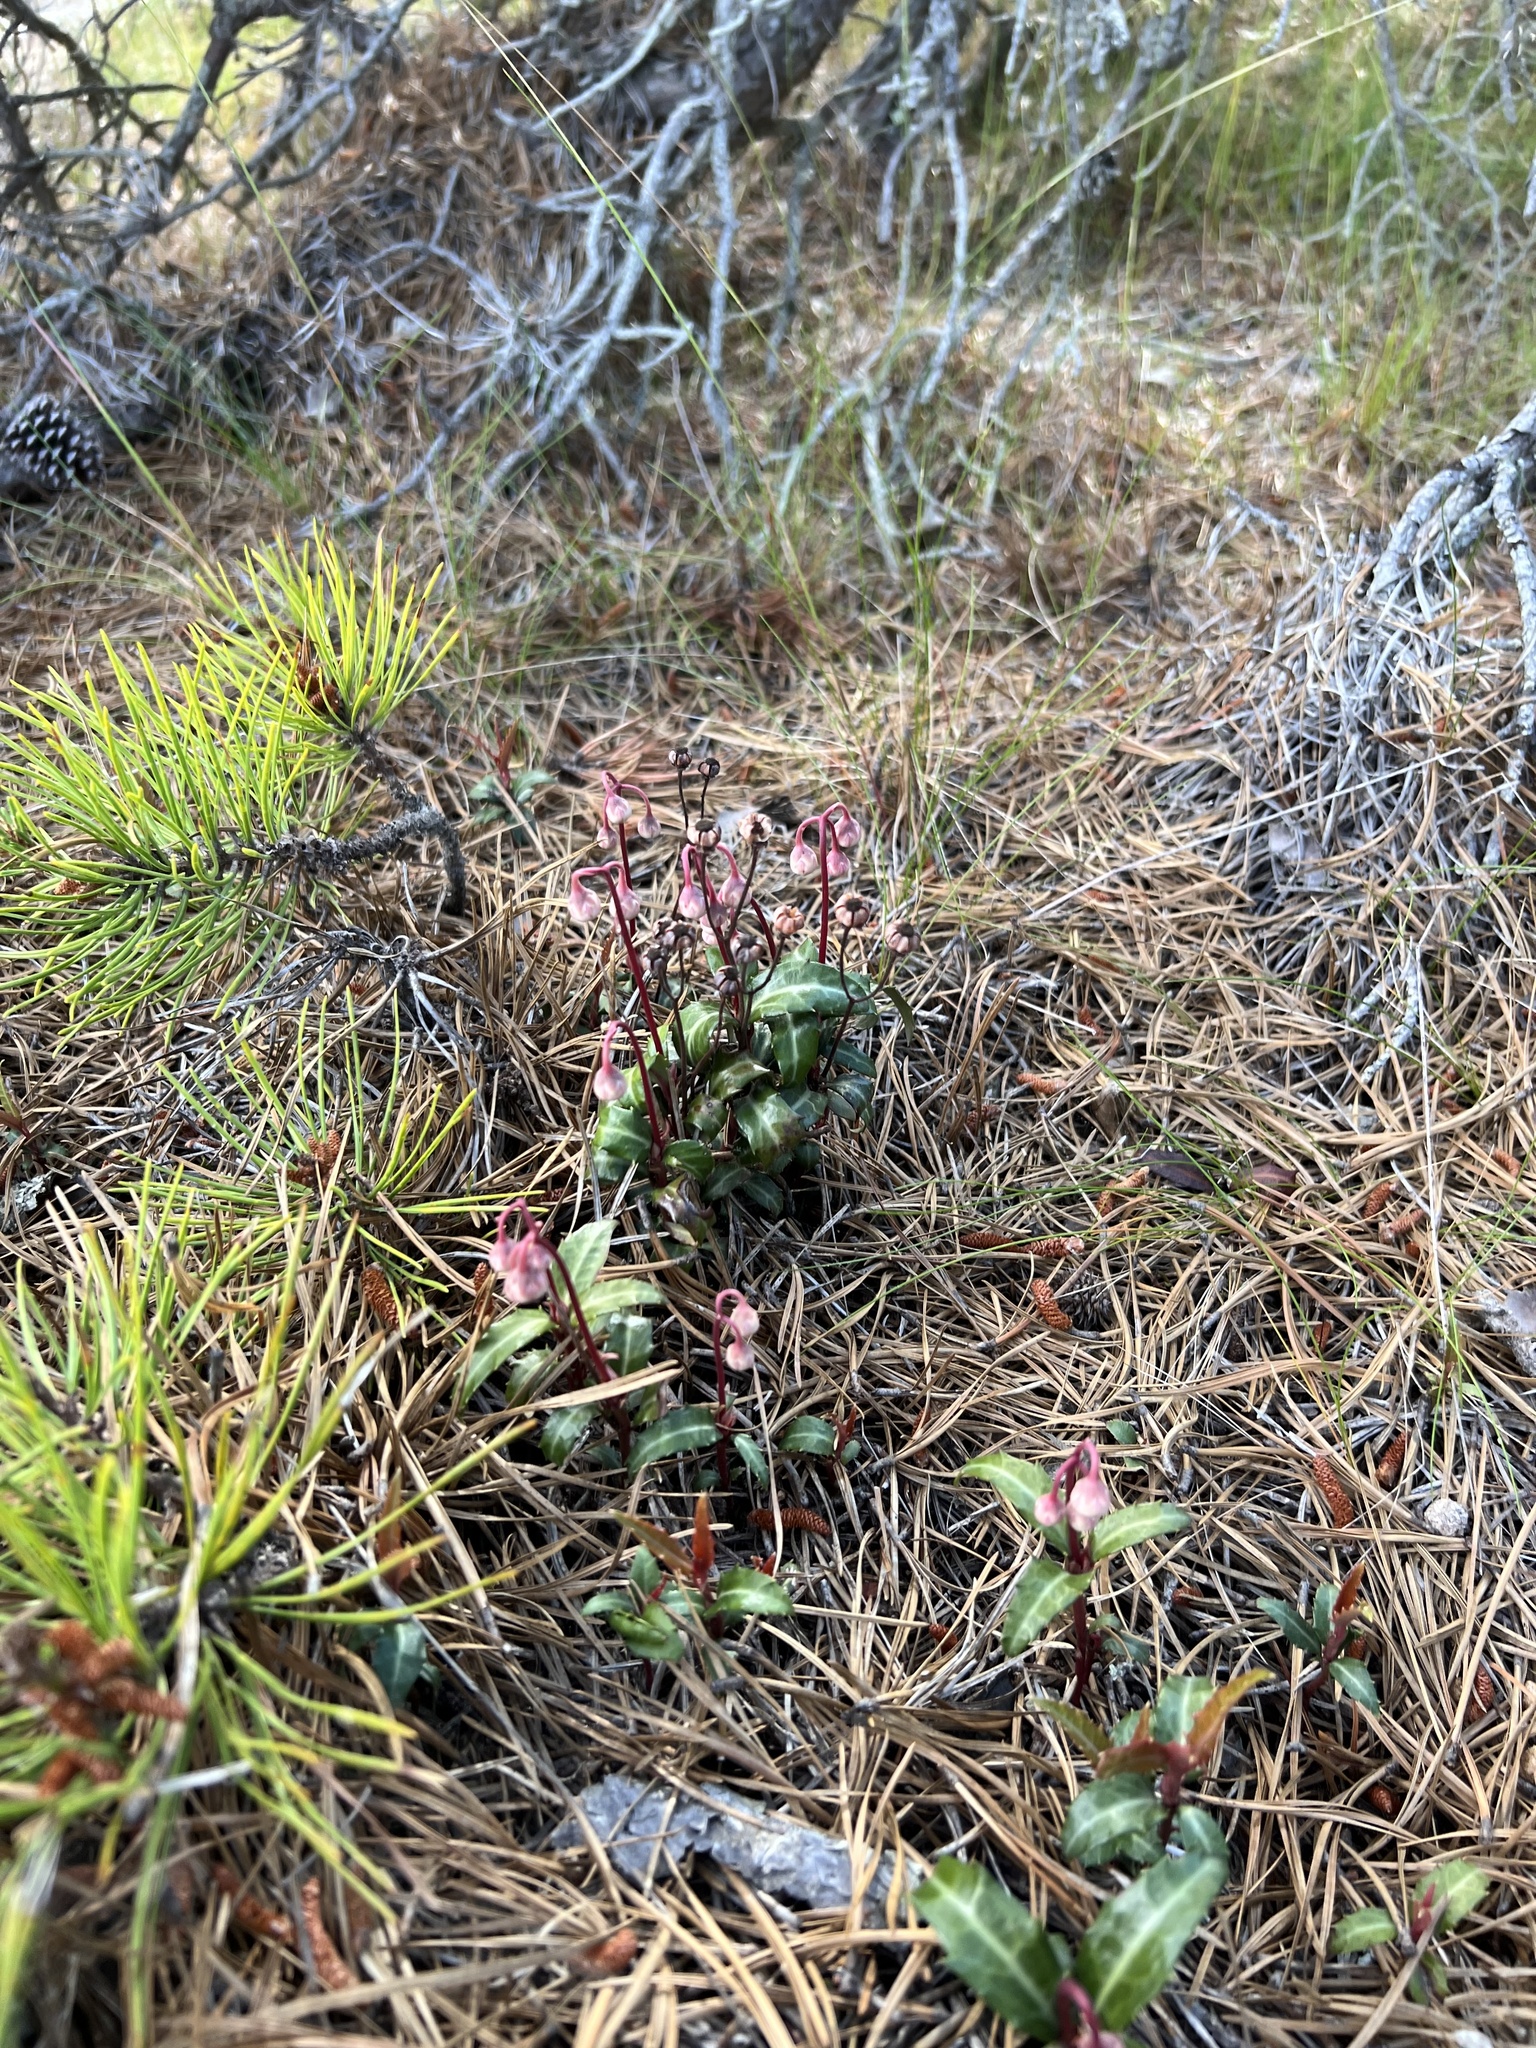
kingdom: Plantae
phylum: Tracheophyta
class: Magnoliopsida
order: Ericales
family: Ericaceae
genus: Chimaphila
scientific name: Chimaphila maculata
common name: Spotted pipsissewa
